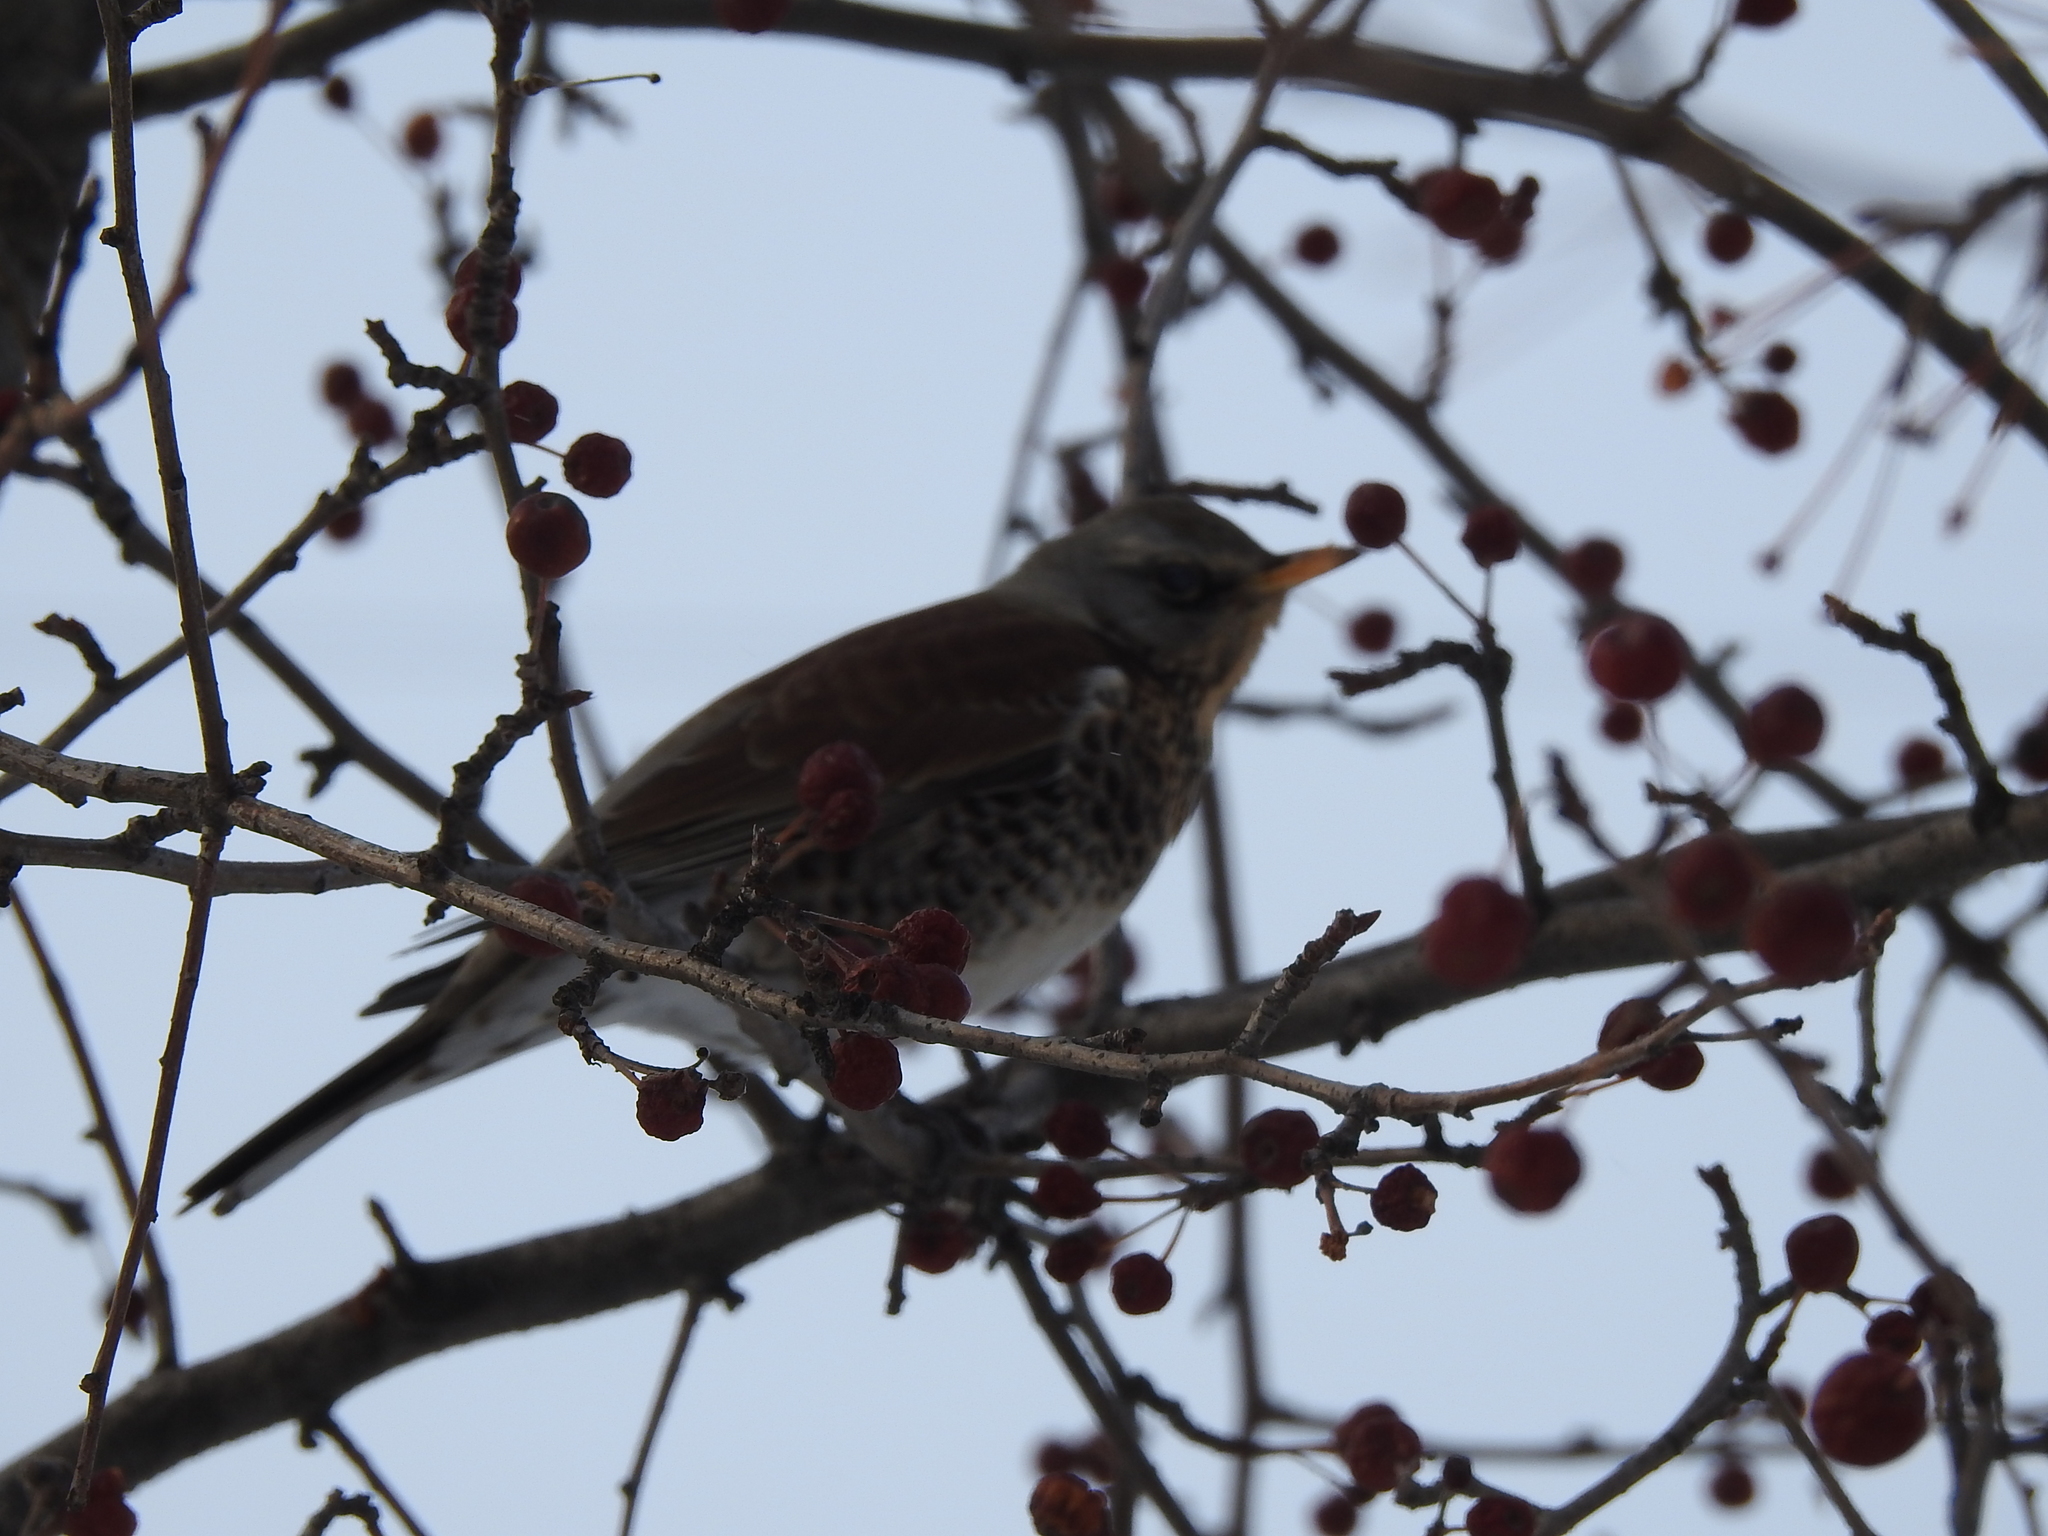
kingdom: Animalia
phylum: Chordata
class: Aves
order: Passeriformes
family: Turdidae
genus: Turdus
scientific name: Turdus pilaris
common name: Fieldfare
